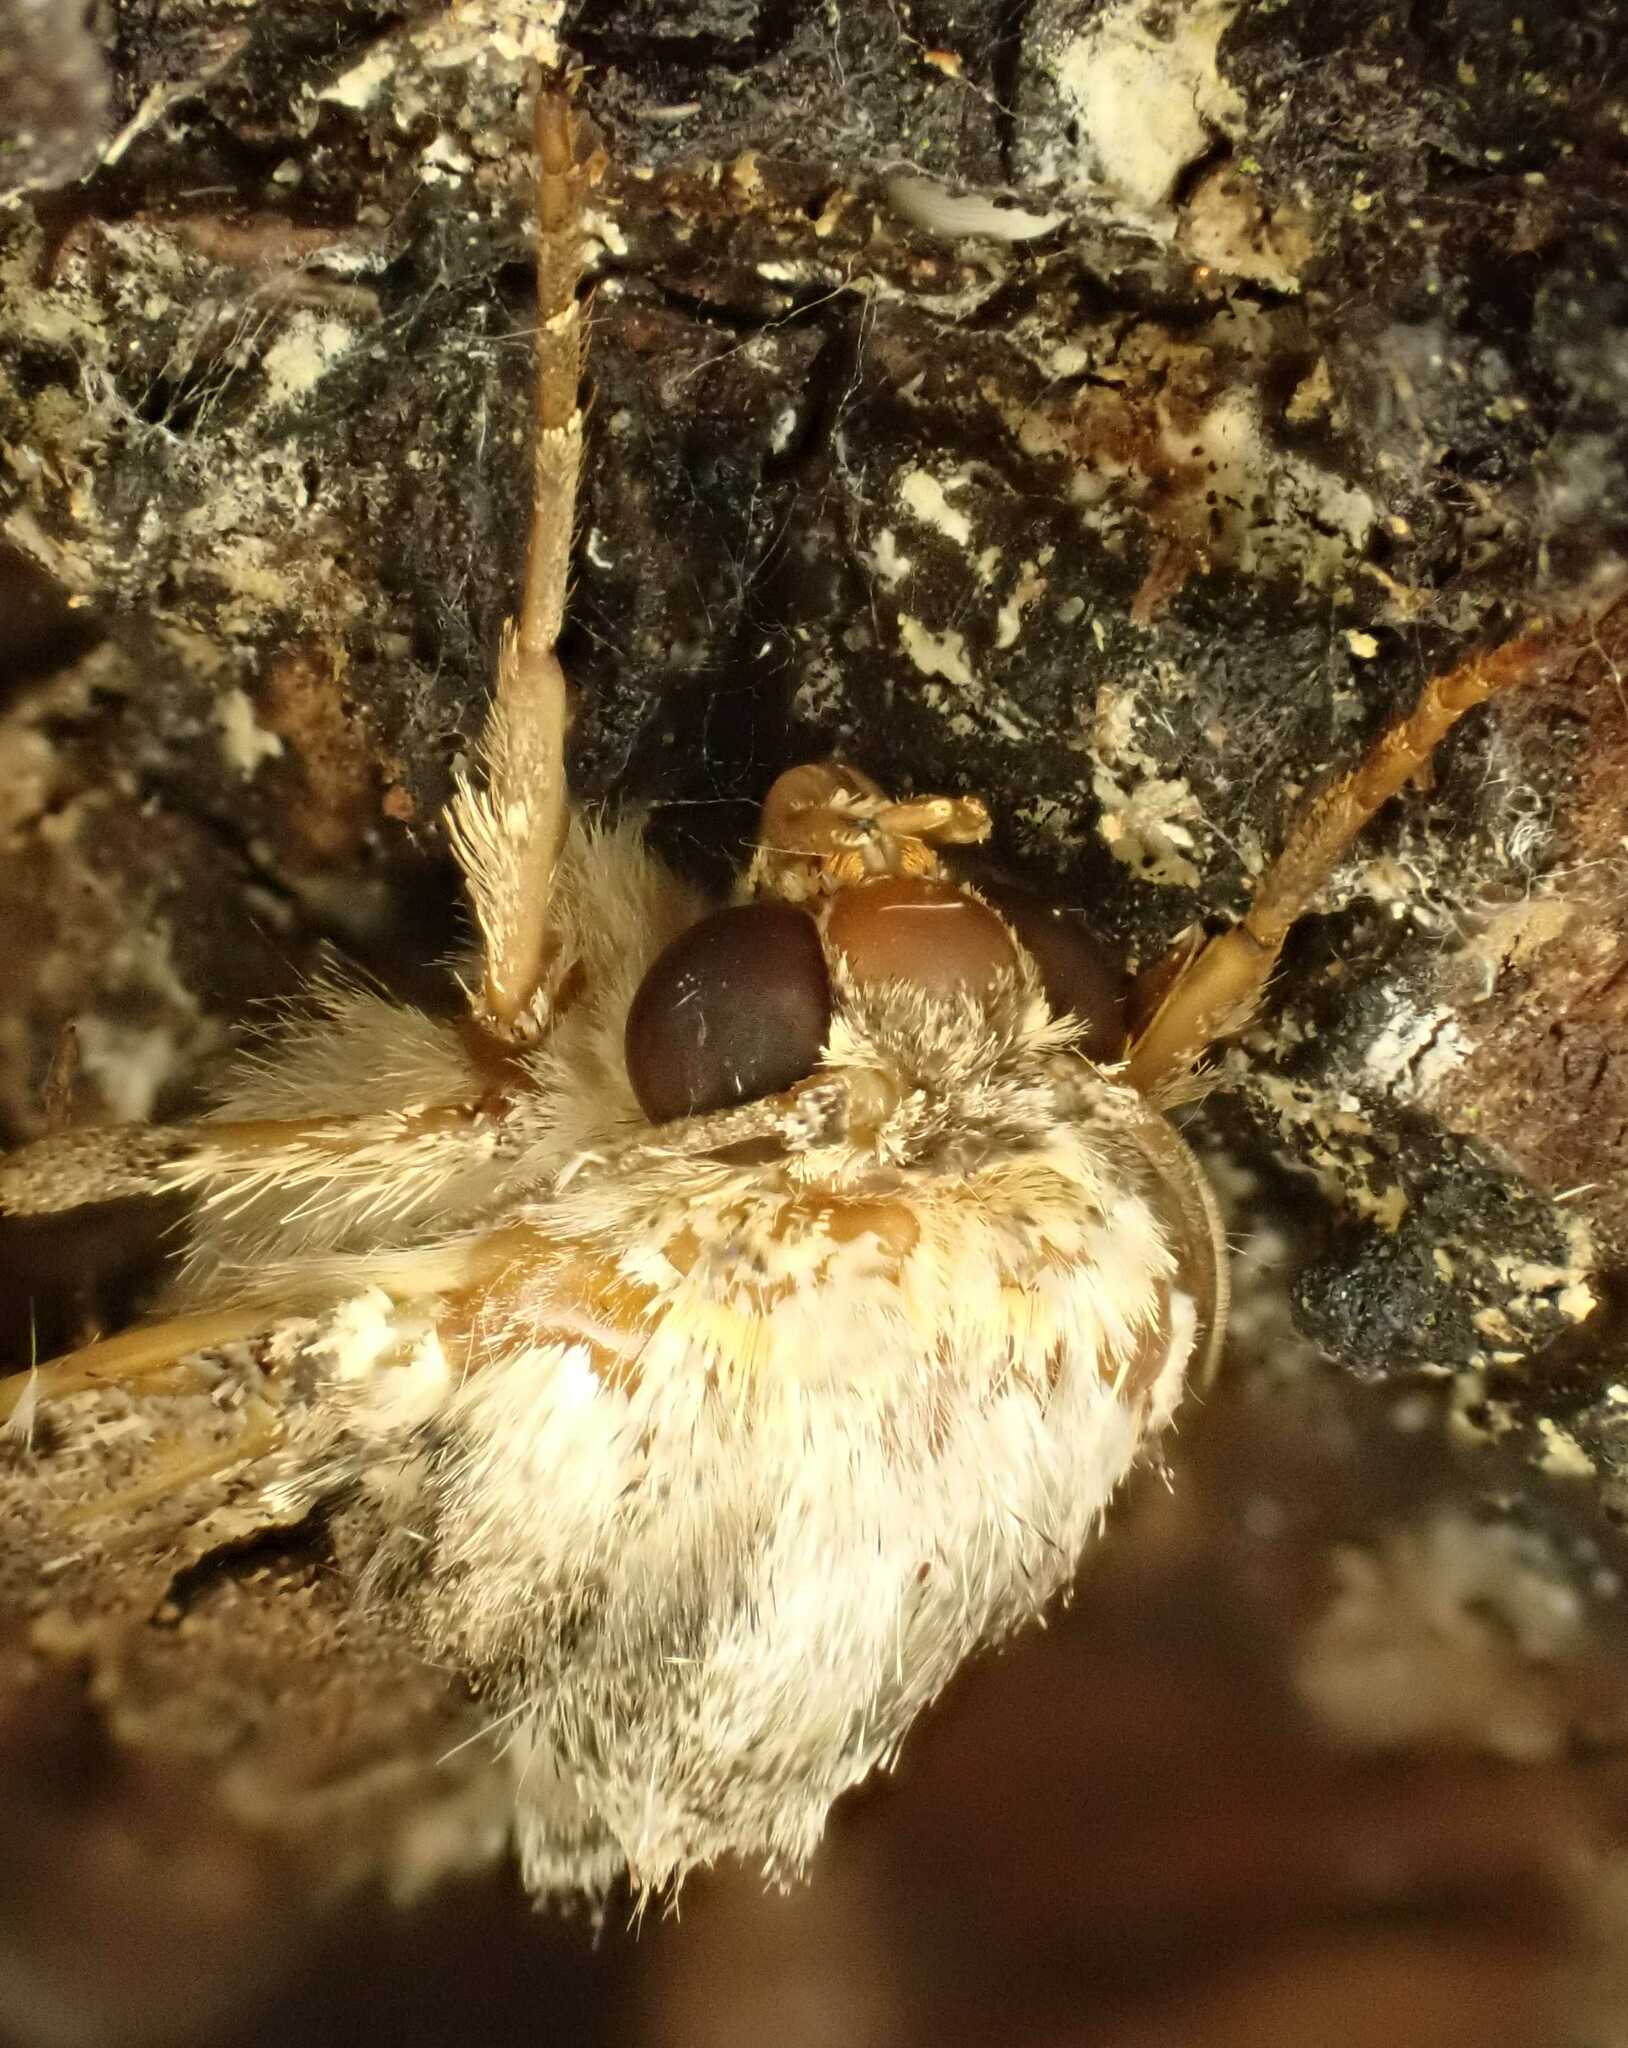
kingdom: Animalia
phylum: Arthropoda
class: Insecta
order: Lepidoptera
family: Noctuidae
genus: Apamea
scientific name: Apamea monoglypha
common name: Dark arches
